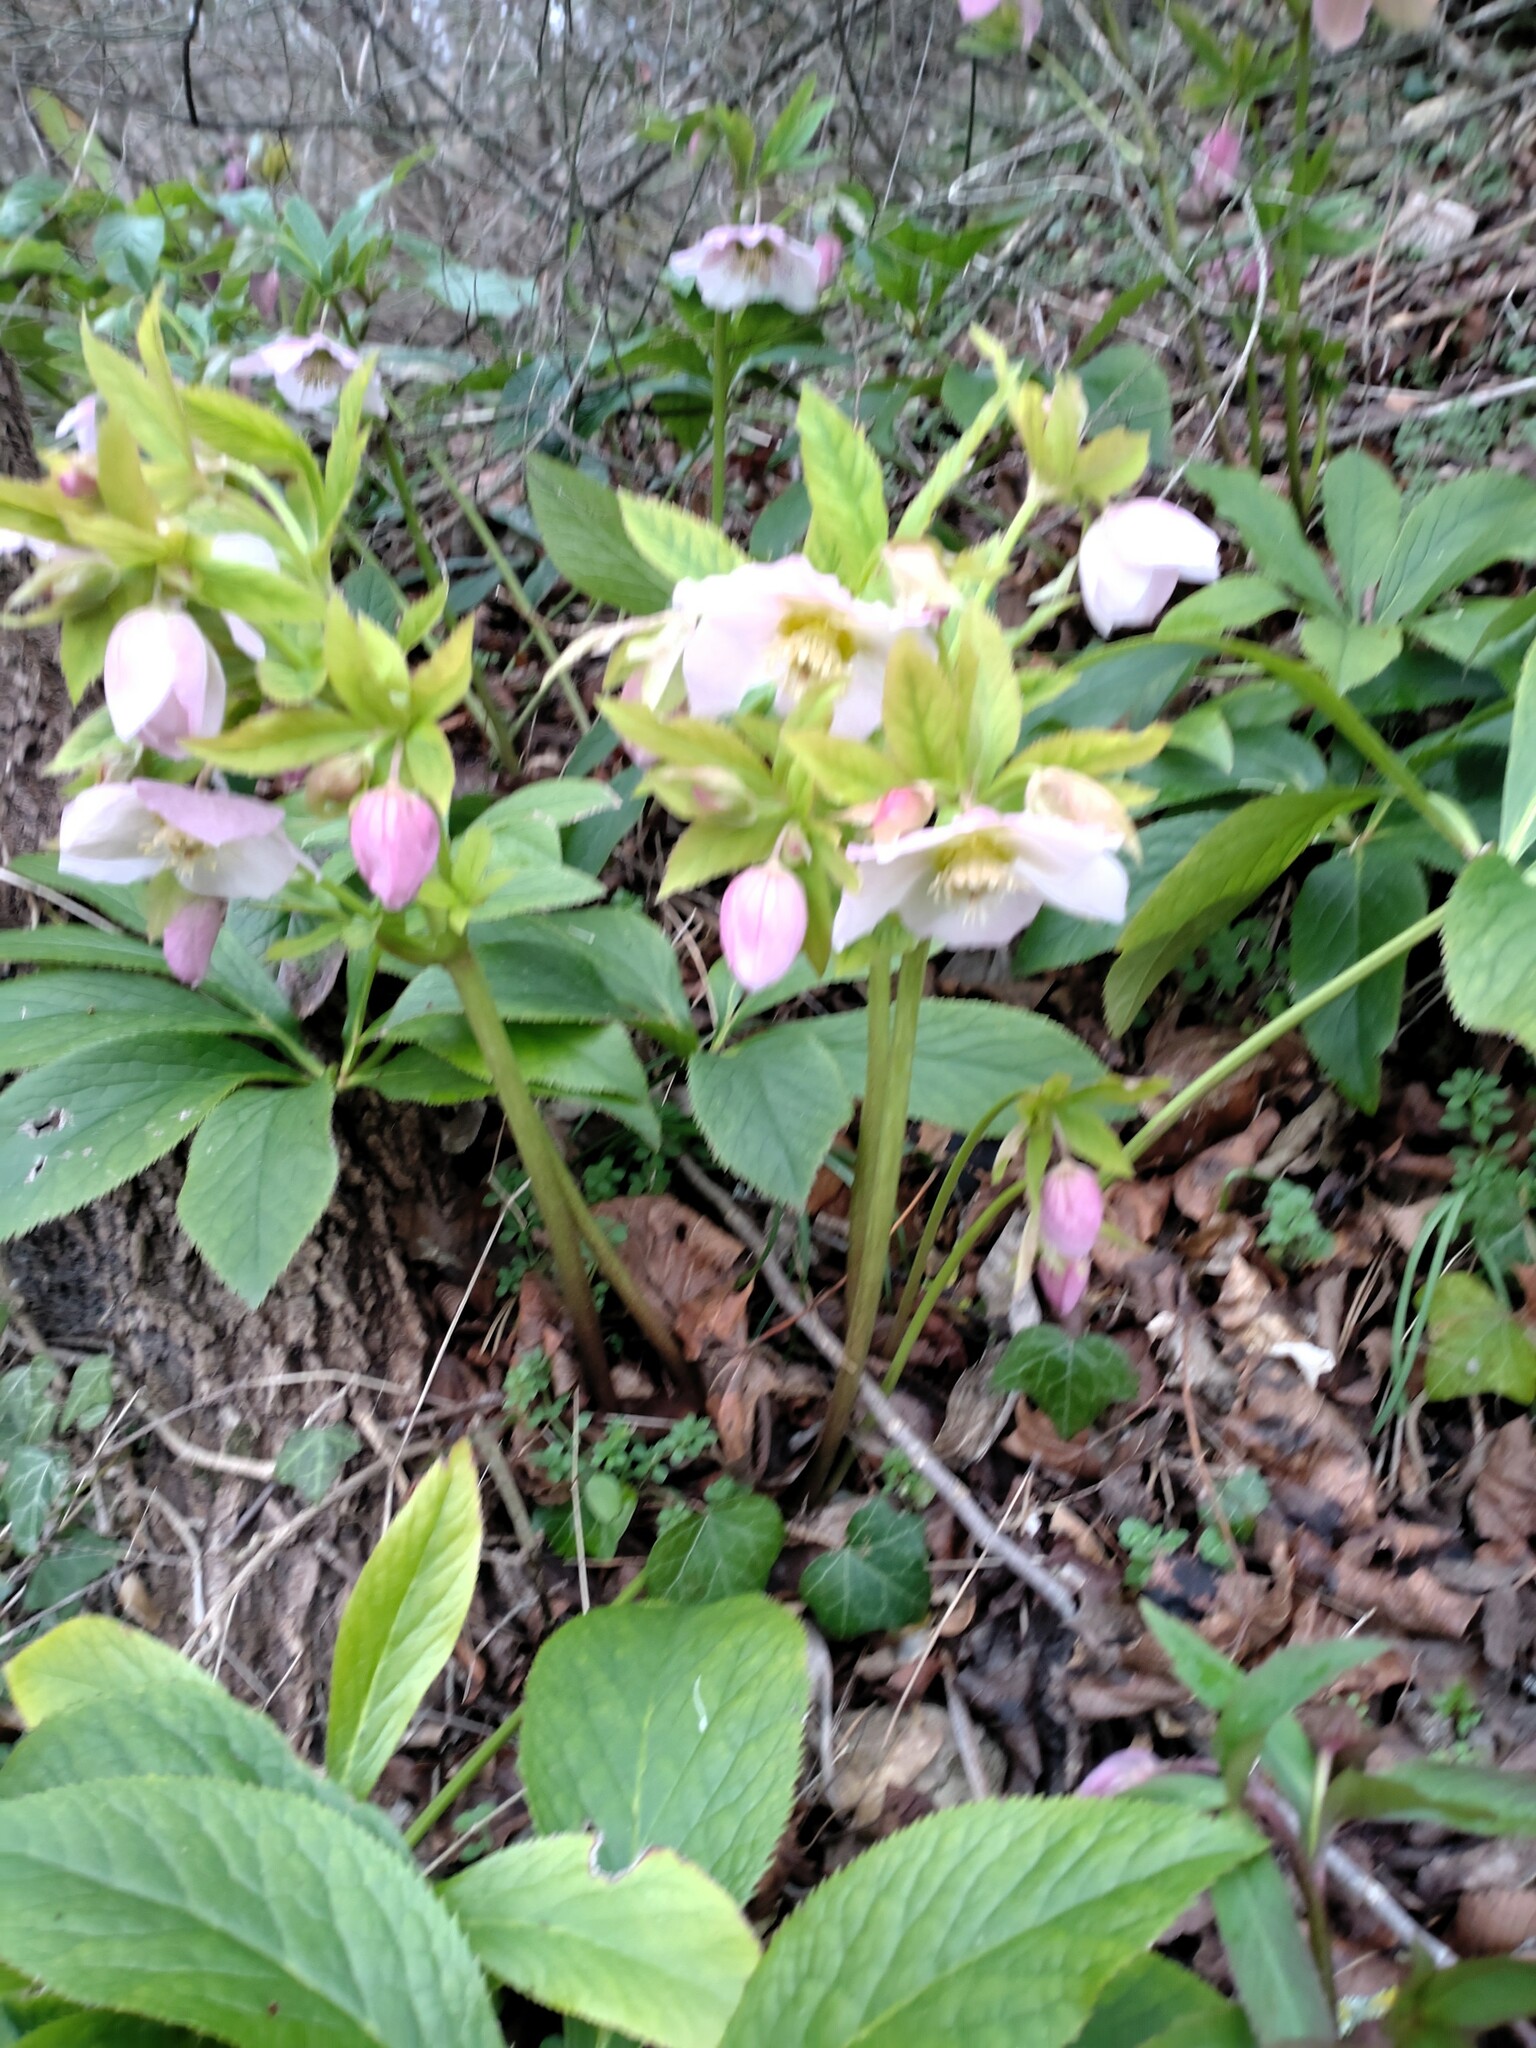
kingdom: Plantae
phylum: Tracheophyta
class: Magnoliopsida
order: Ranunculales
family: Ranunculaceae
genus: Helleborus
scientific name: Helleborus hybridus
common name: Hybrid lenten-rose
